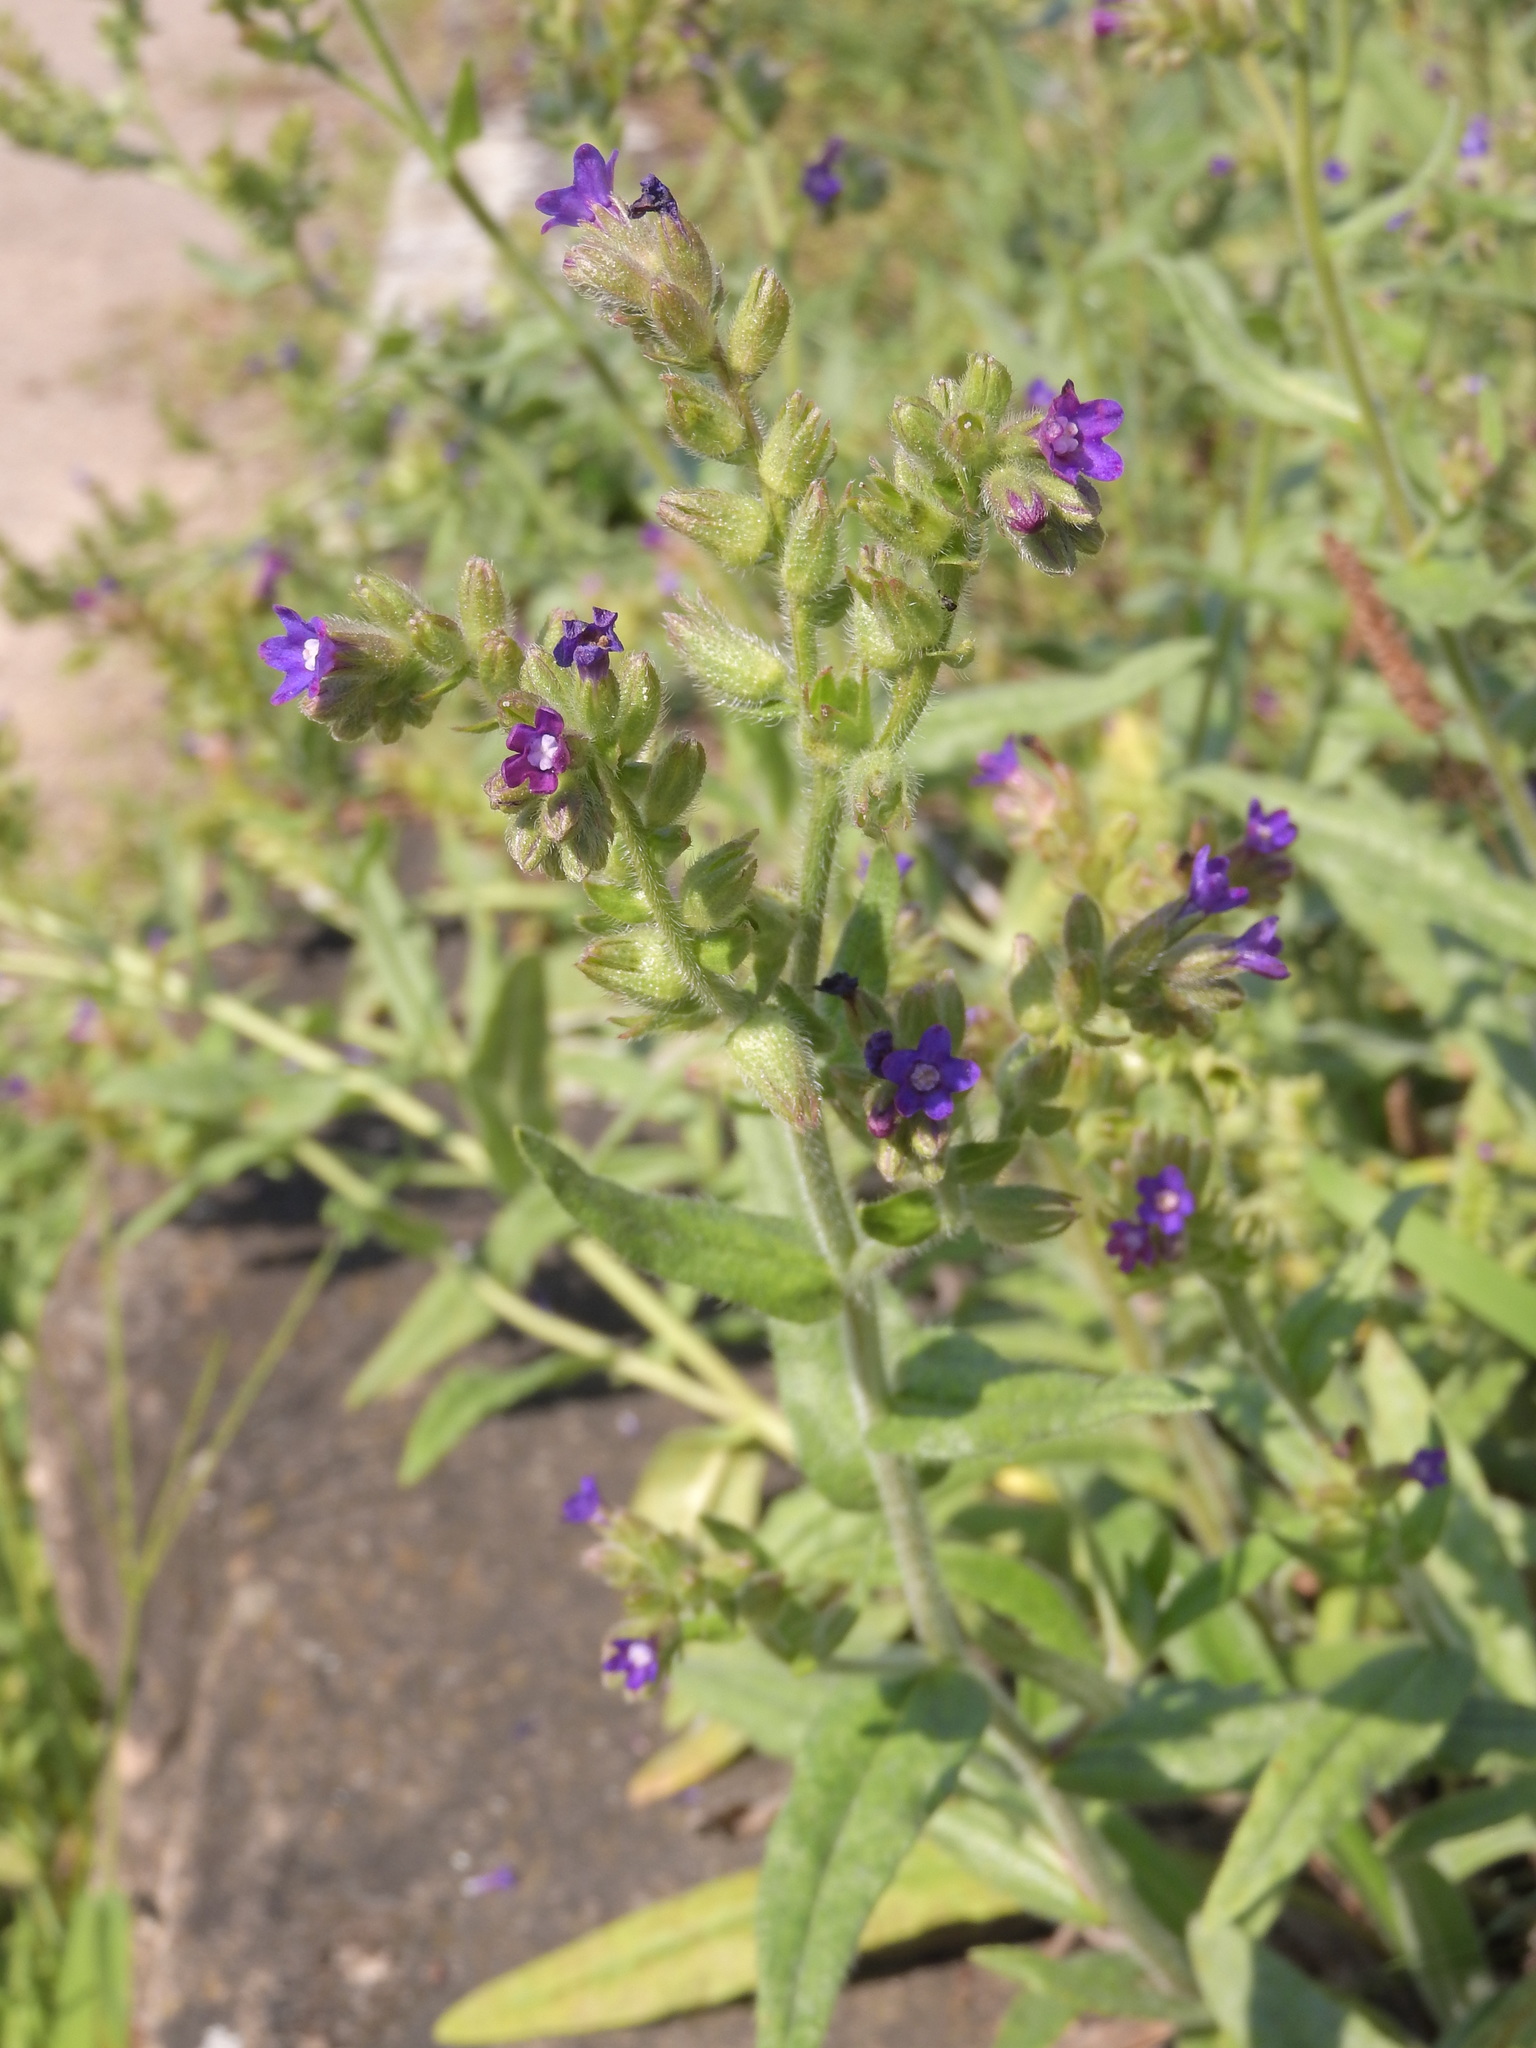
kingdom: Plantae
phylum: Tracheophyta
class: Magnoliopsida
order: Boraginales
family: Boraginaceae
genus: Anchusa
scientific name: Anchusa officinalis
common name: Alkanet
